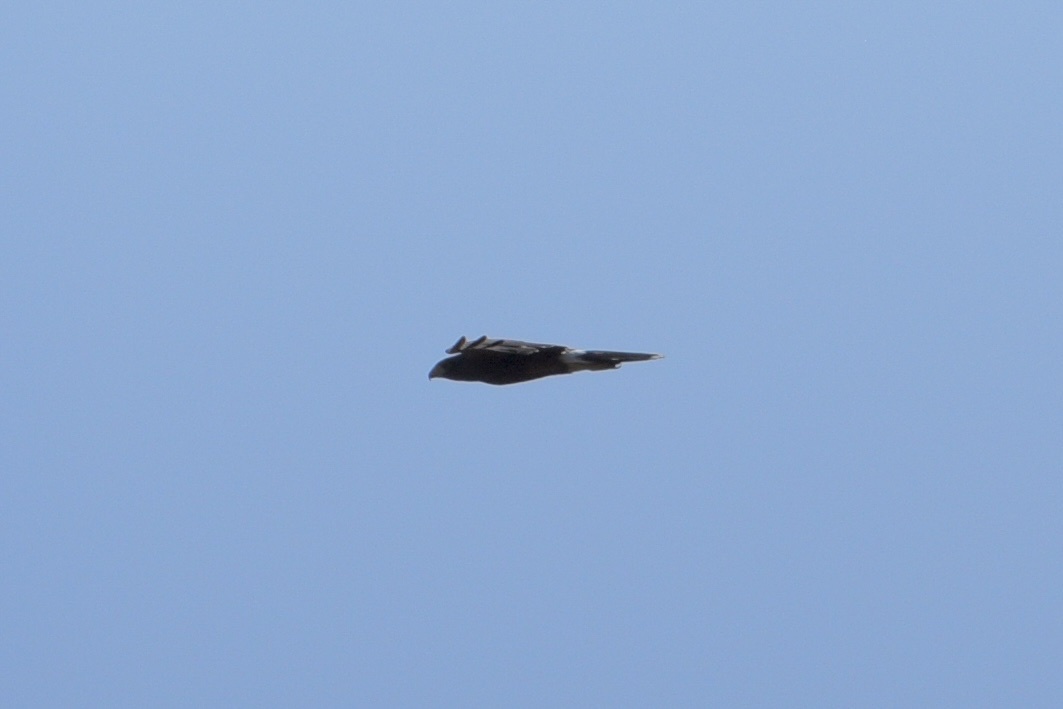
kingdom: Animalia
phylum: Chordata
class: Aves
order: Accipitriformes
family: Accipitridae
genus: Parabuteo
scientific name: Parabuteo unicinctus
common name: Harris's hawk
